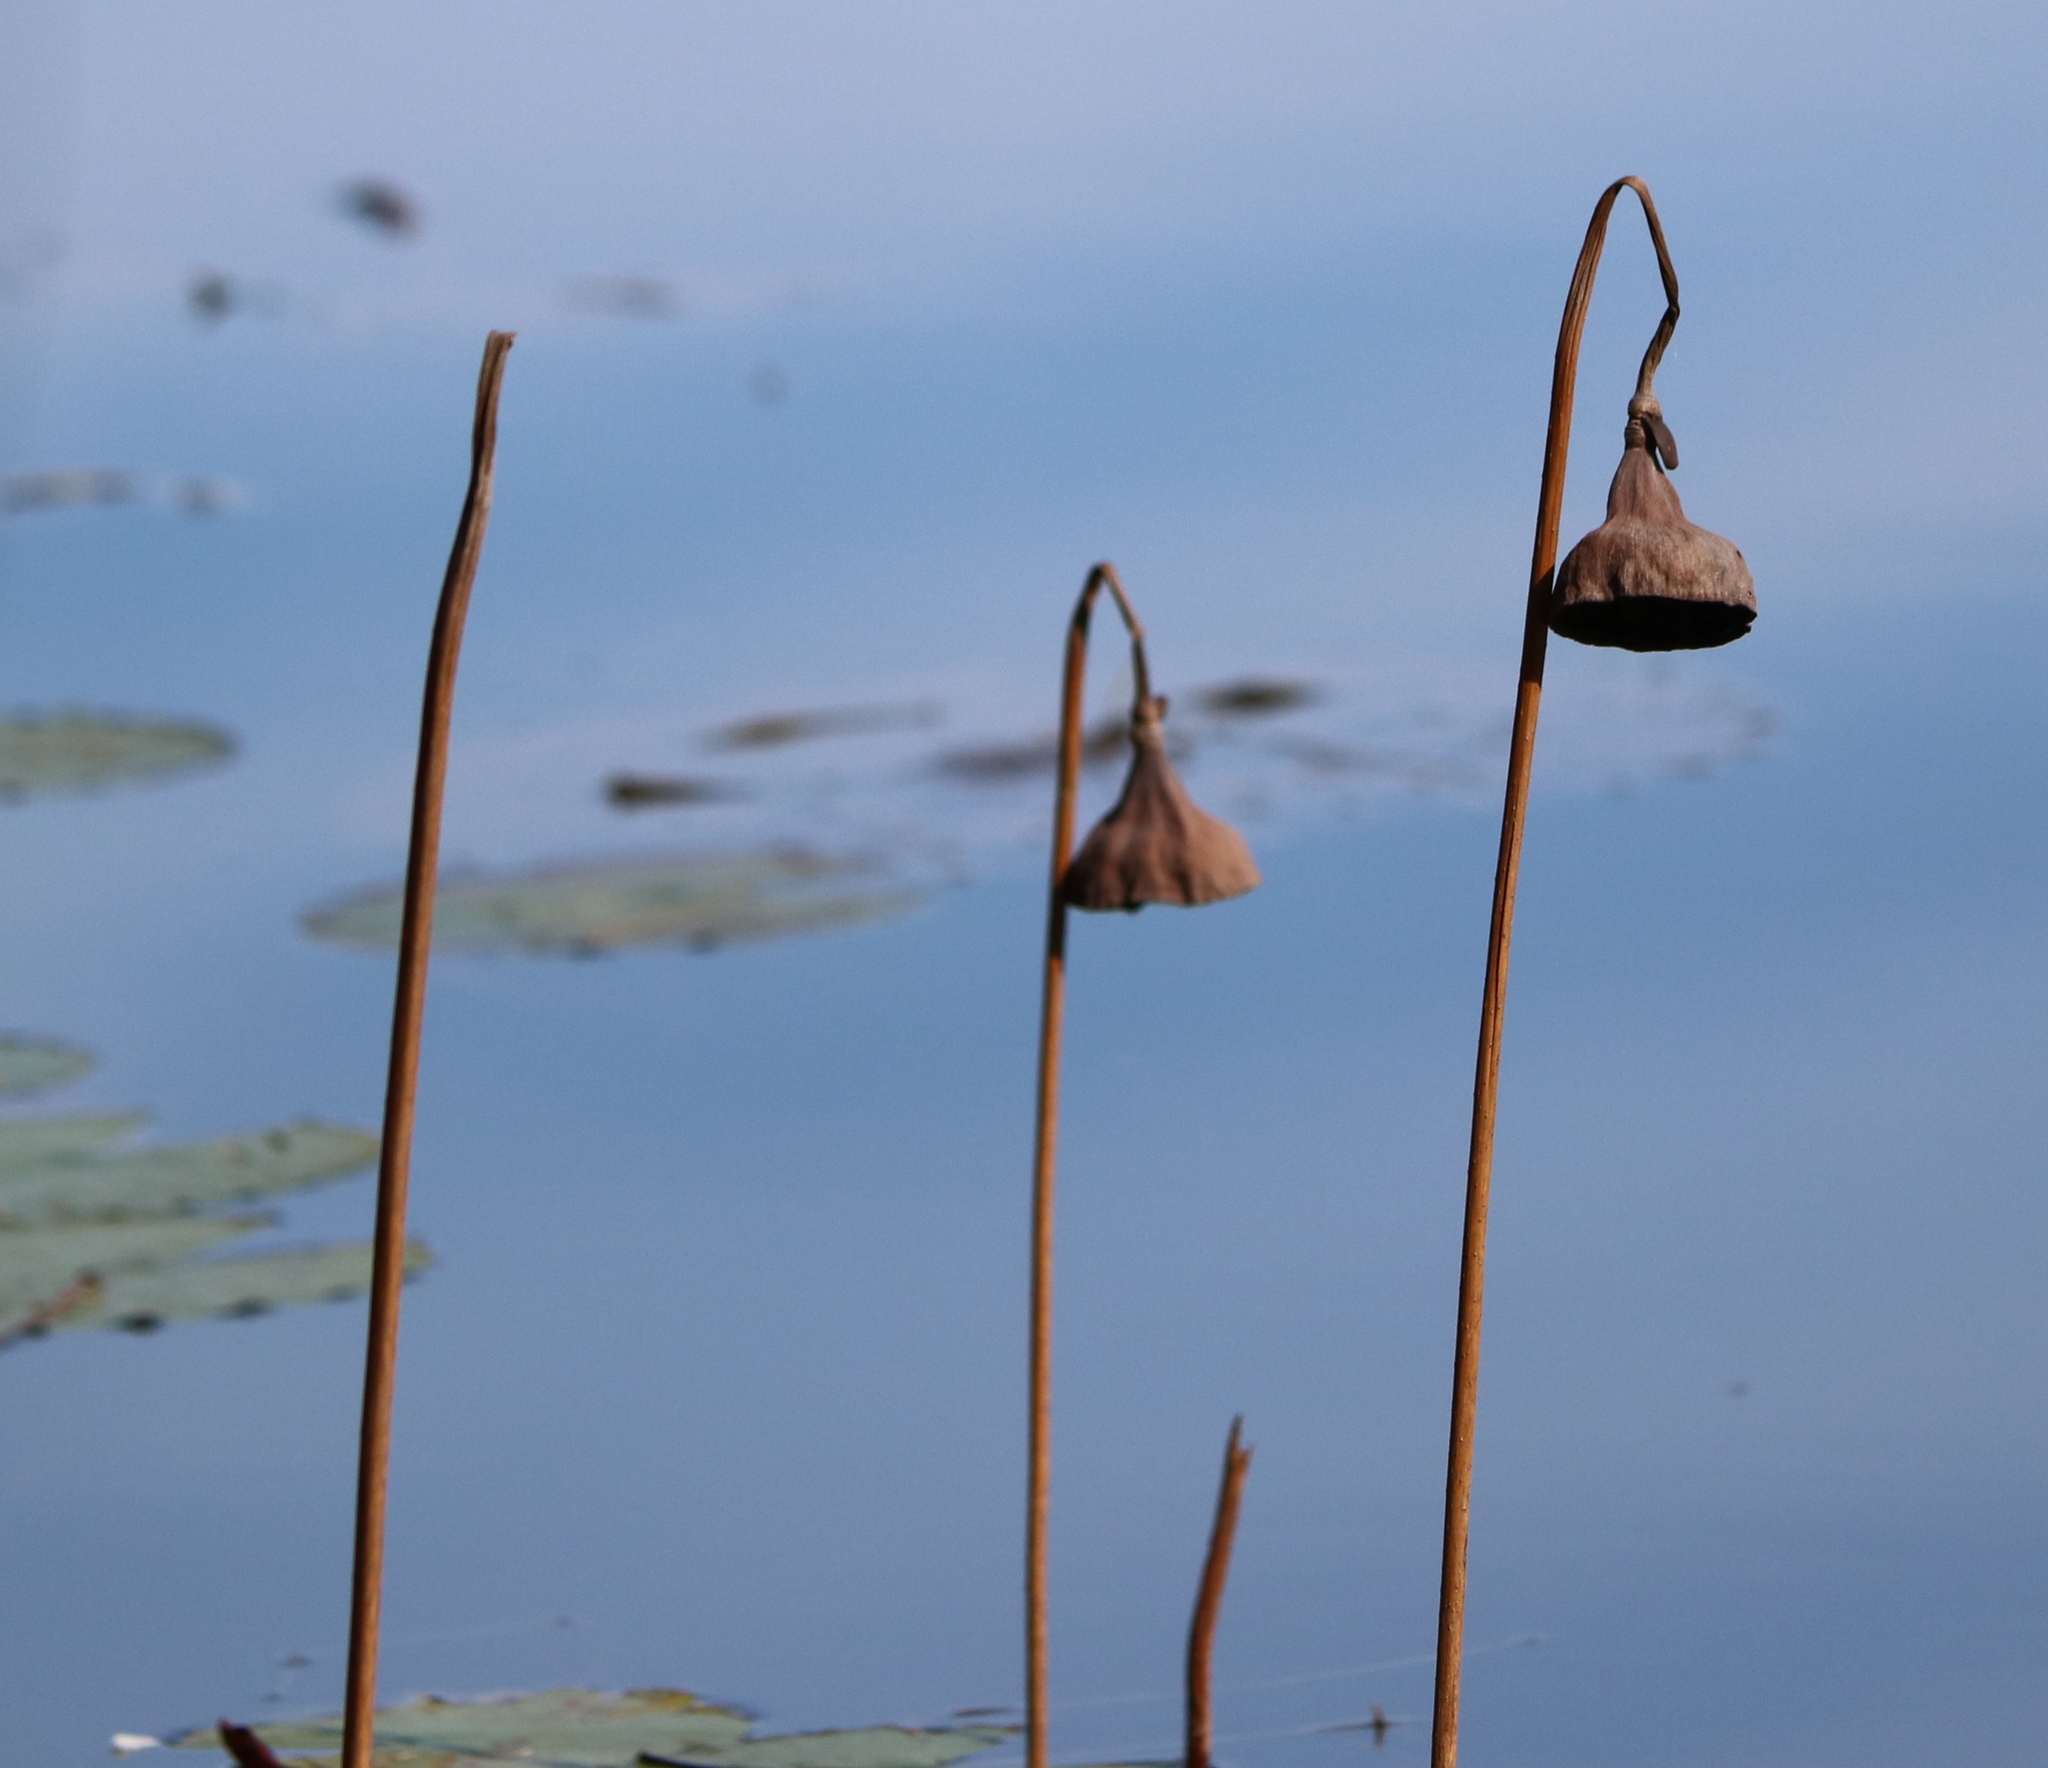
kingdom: Plantae
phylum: Tracheophyta
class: Magnoliopsida
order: Proteales
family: Nelumbonaceae
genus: Nelumbo
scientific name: Nelumbo lutea
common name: American lotus
